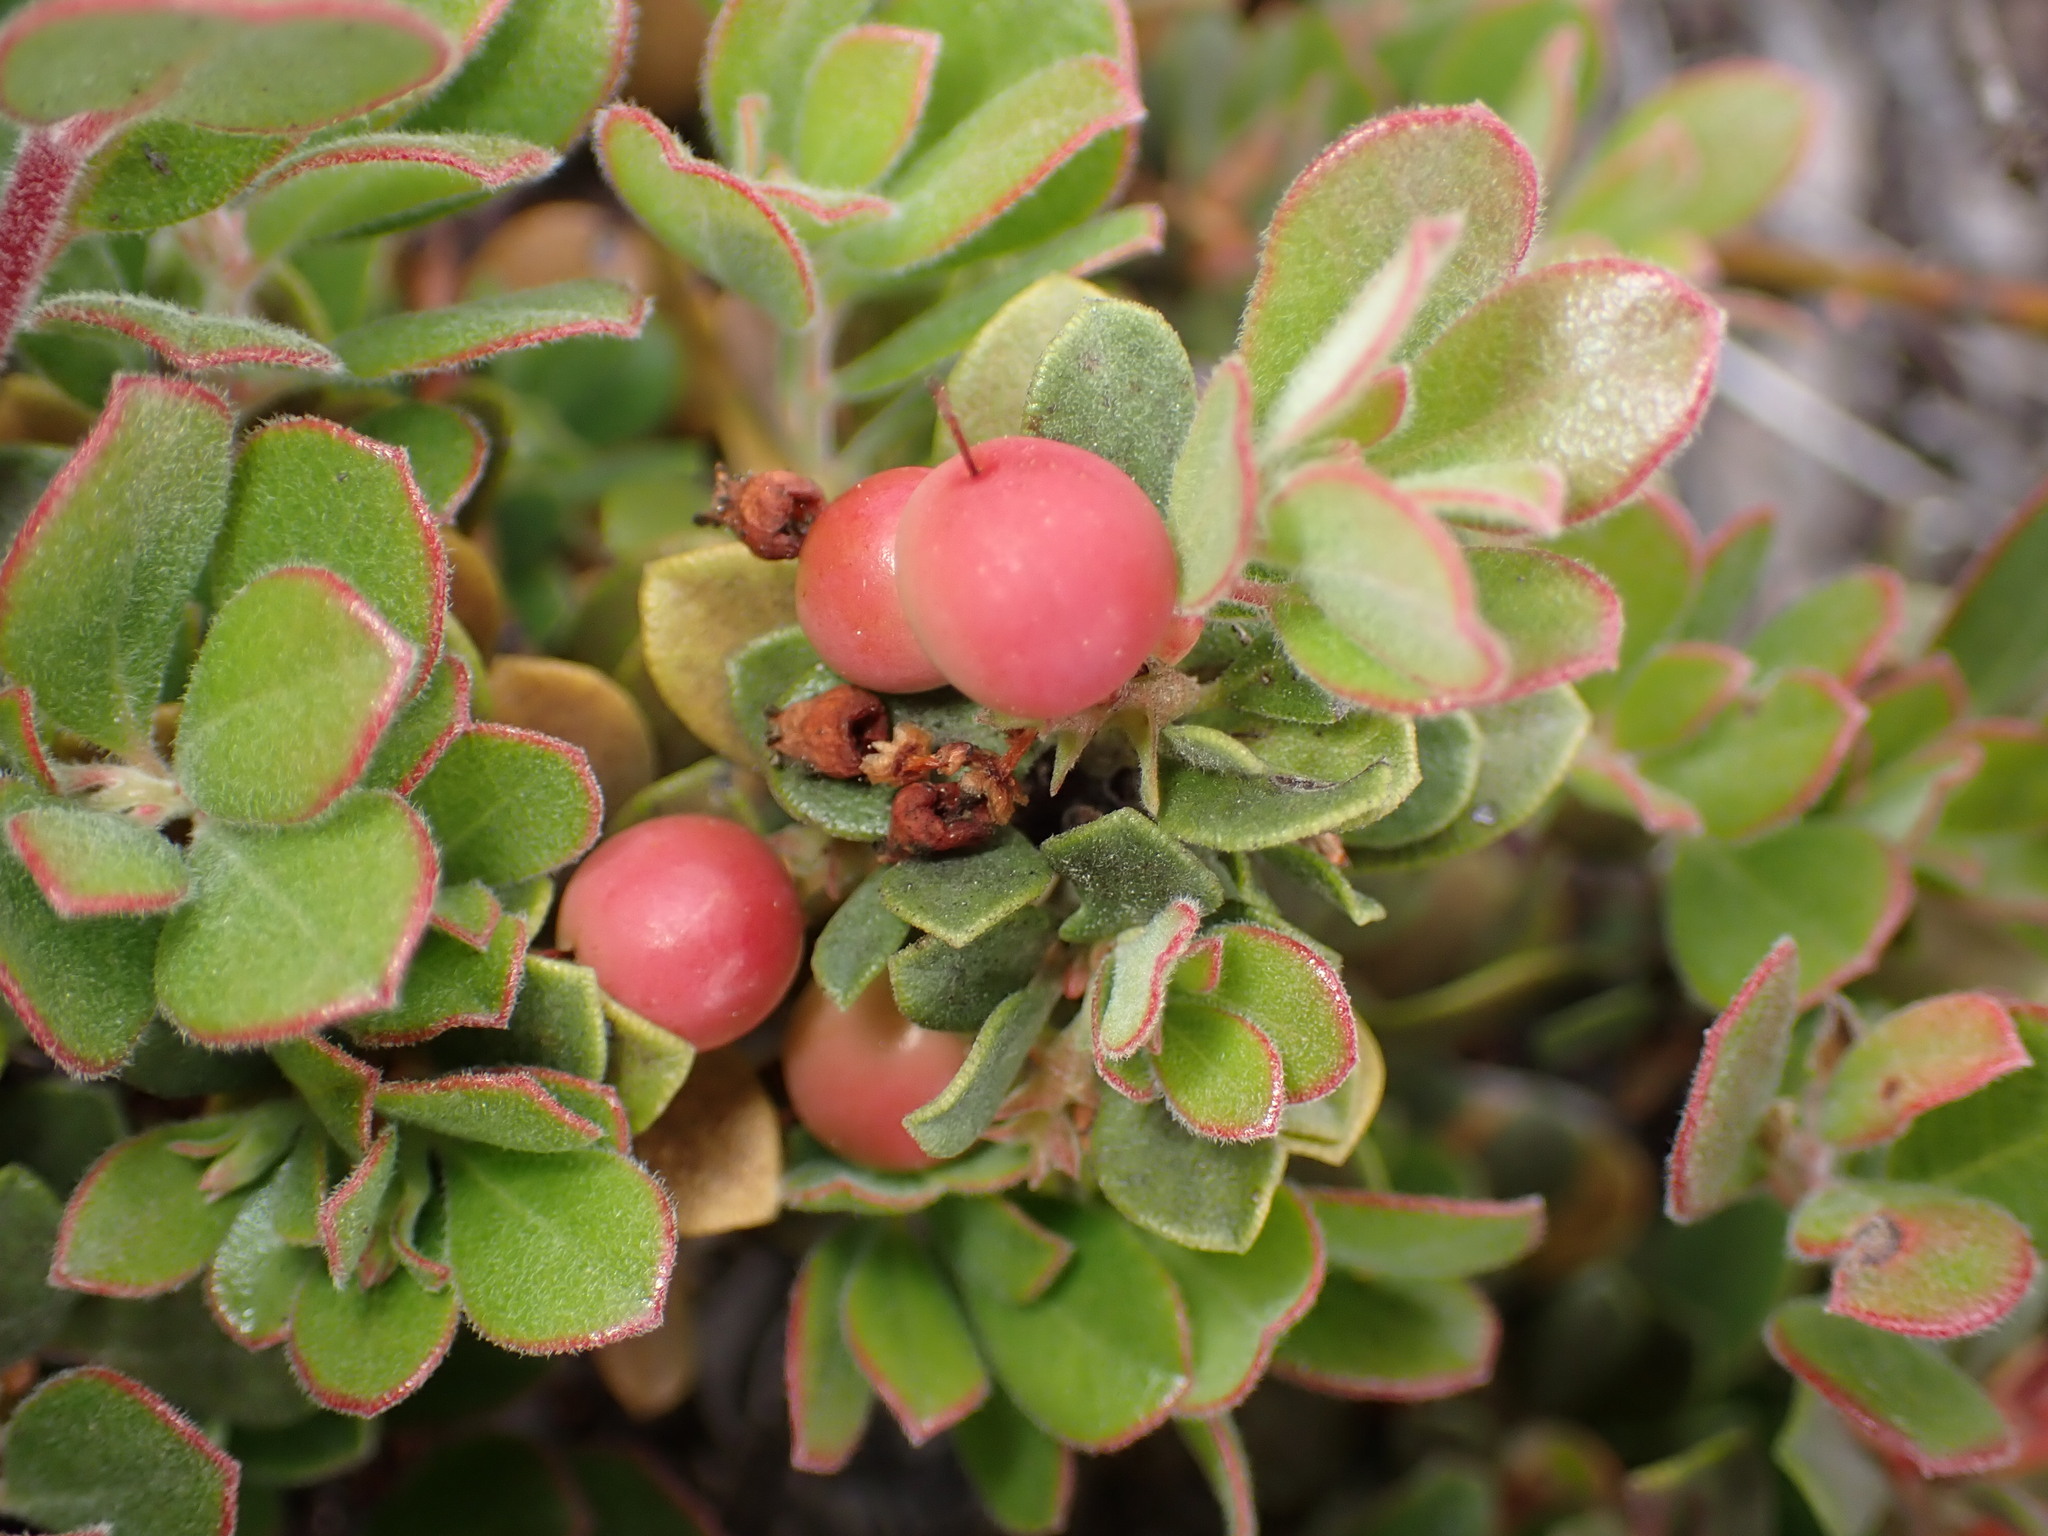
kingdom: Plantae
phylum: Tracheophyta
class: Magnoliopsida
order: Ericales
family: Ericaceae
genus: Arctostaphylos
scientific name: Arctostaphylos pumila
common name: Sandmat manzanita
